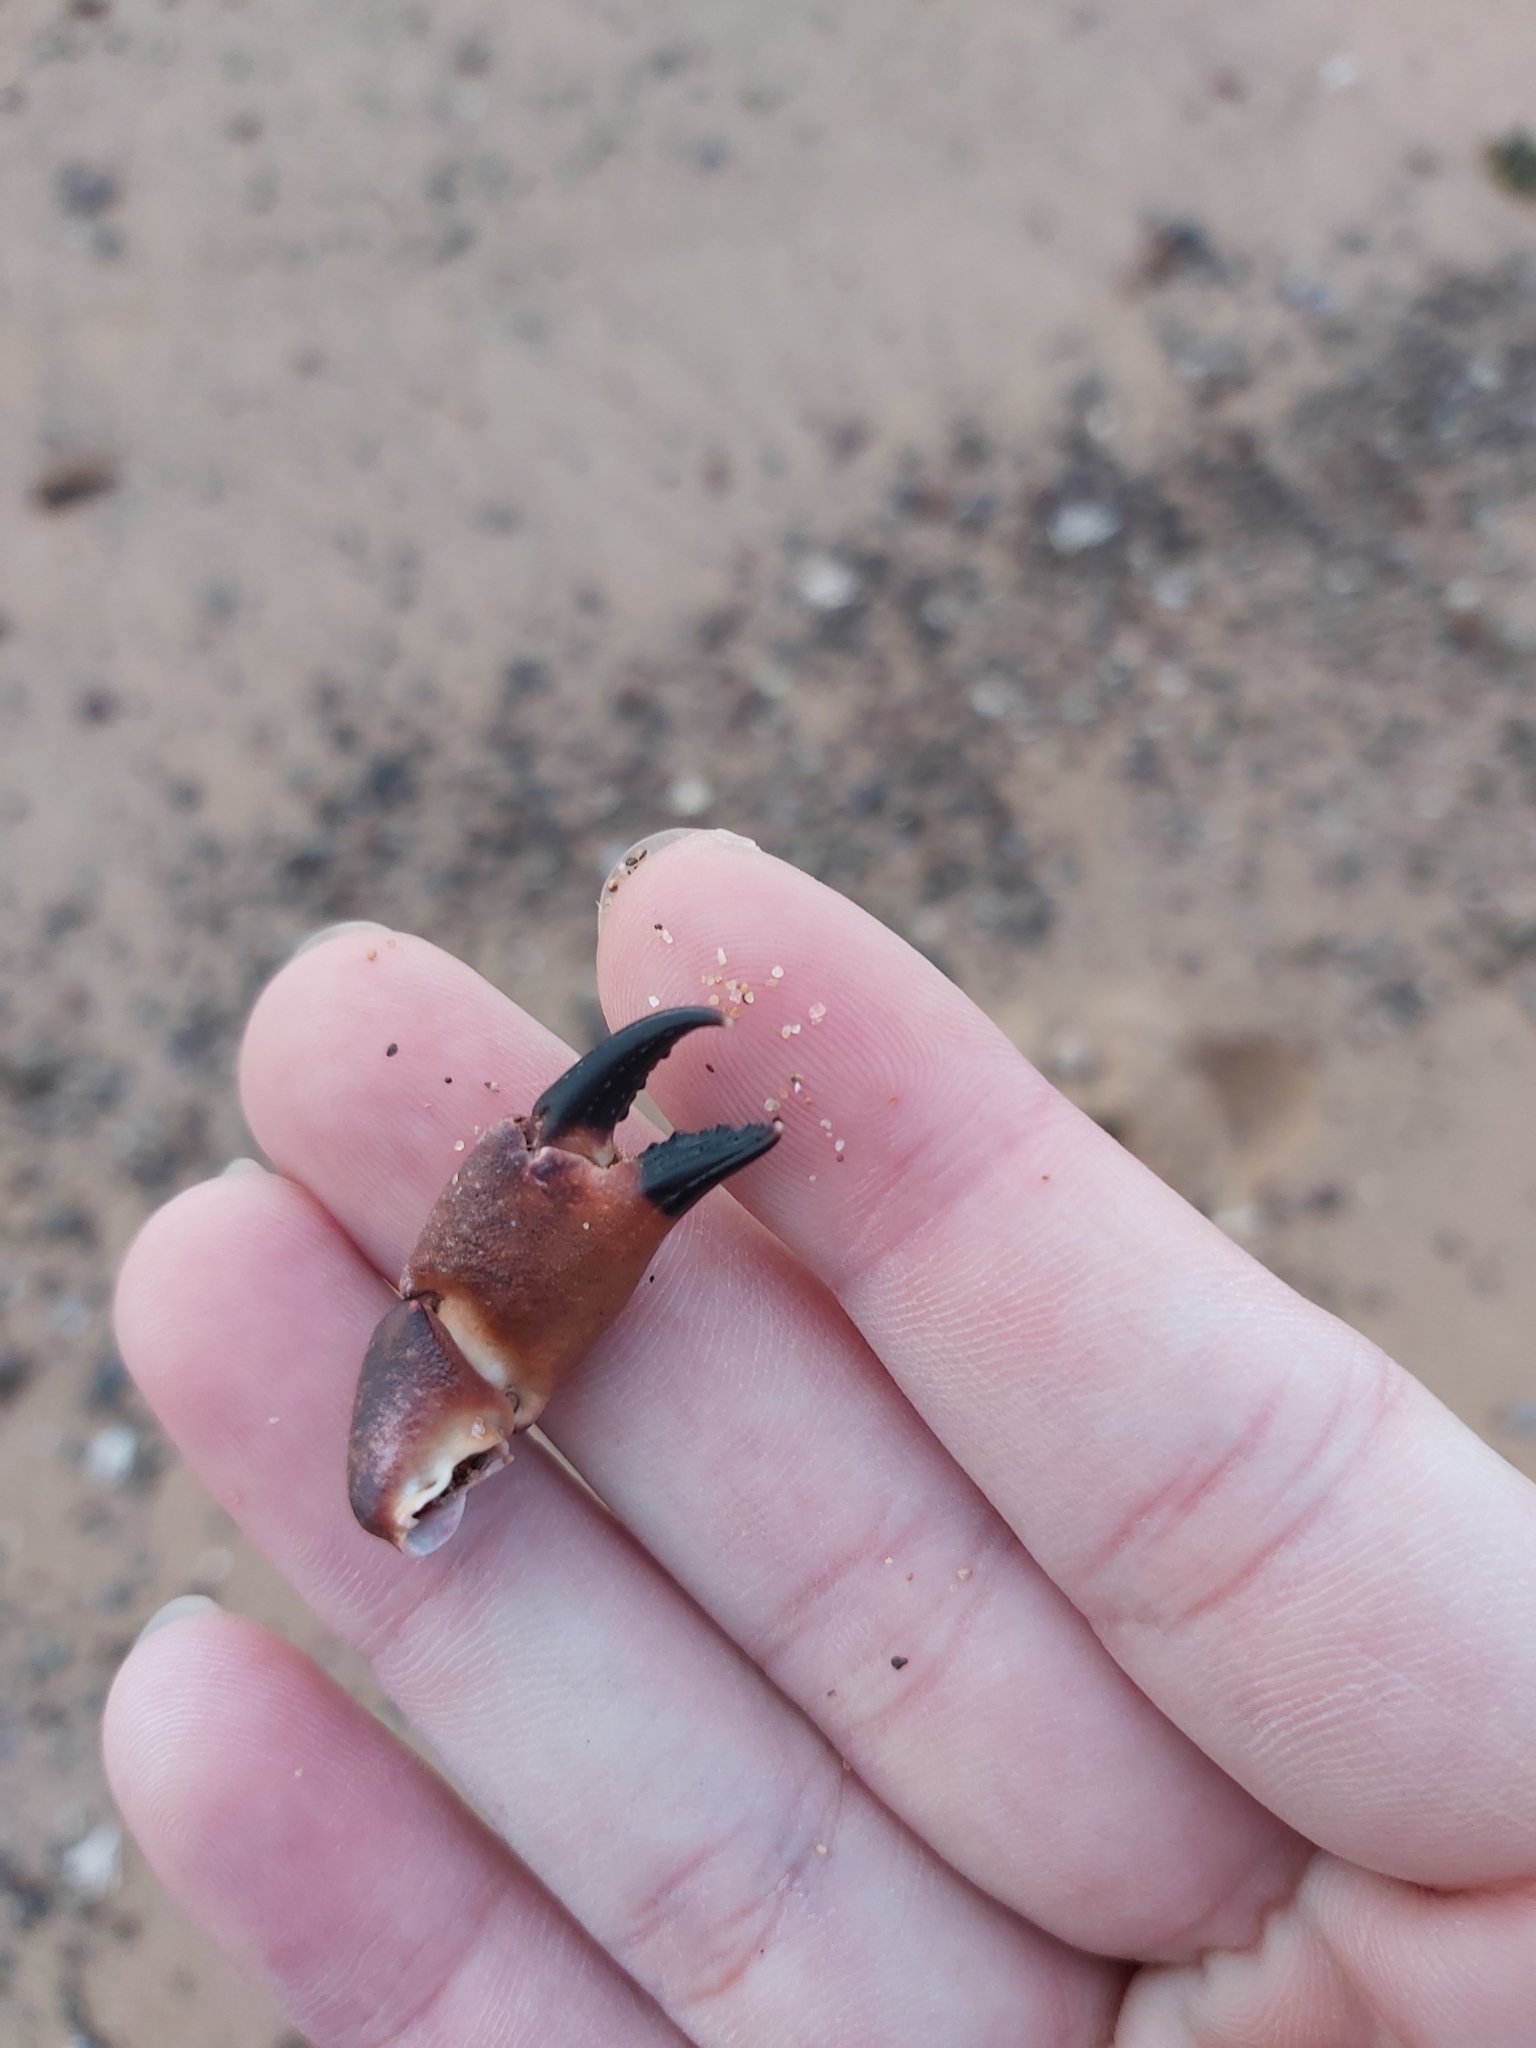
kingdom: Animalia
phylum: Arthropoda
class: Malacostraca
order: Decapoda
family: Oziidae
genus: Ozius
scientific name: Ozius truncatus
